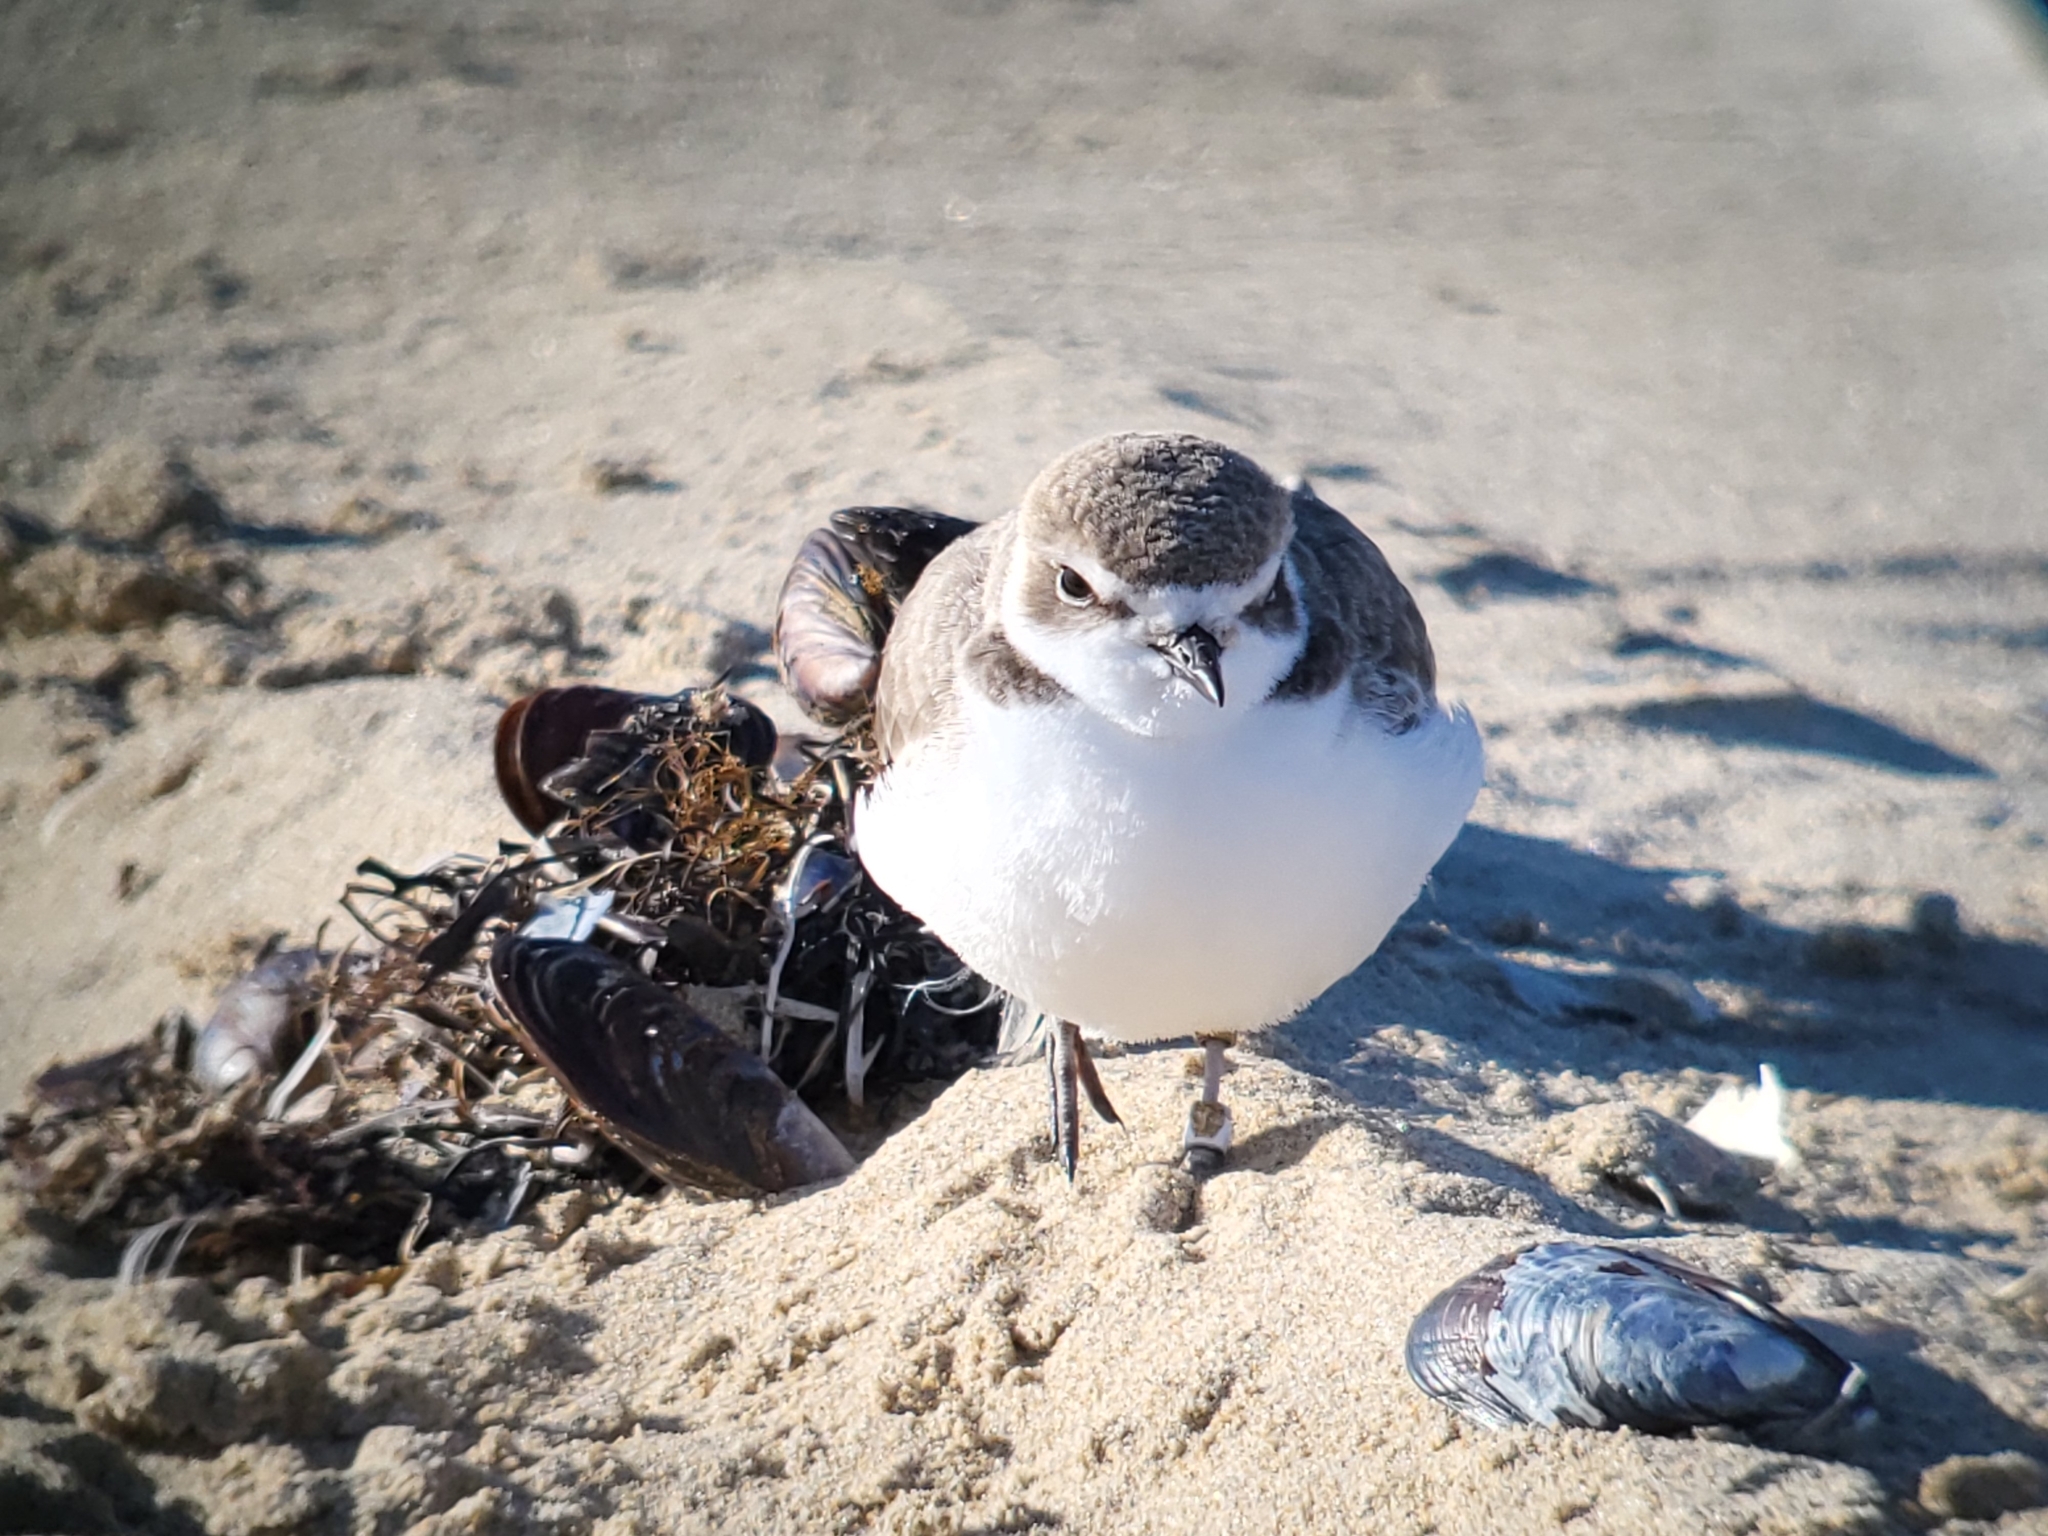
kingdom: Animalia
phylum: Chordata
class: Aves
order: Charadriiformes
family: Charadriidae
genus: Anarhynchus
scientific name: Anarhynchus
